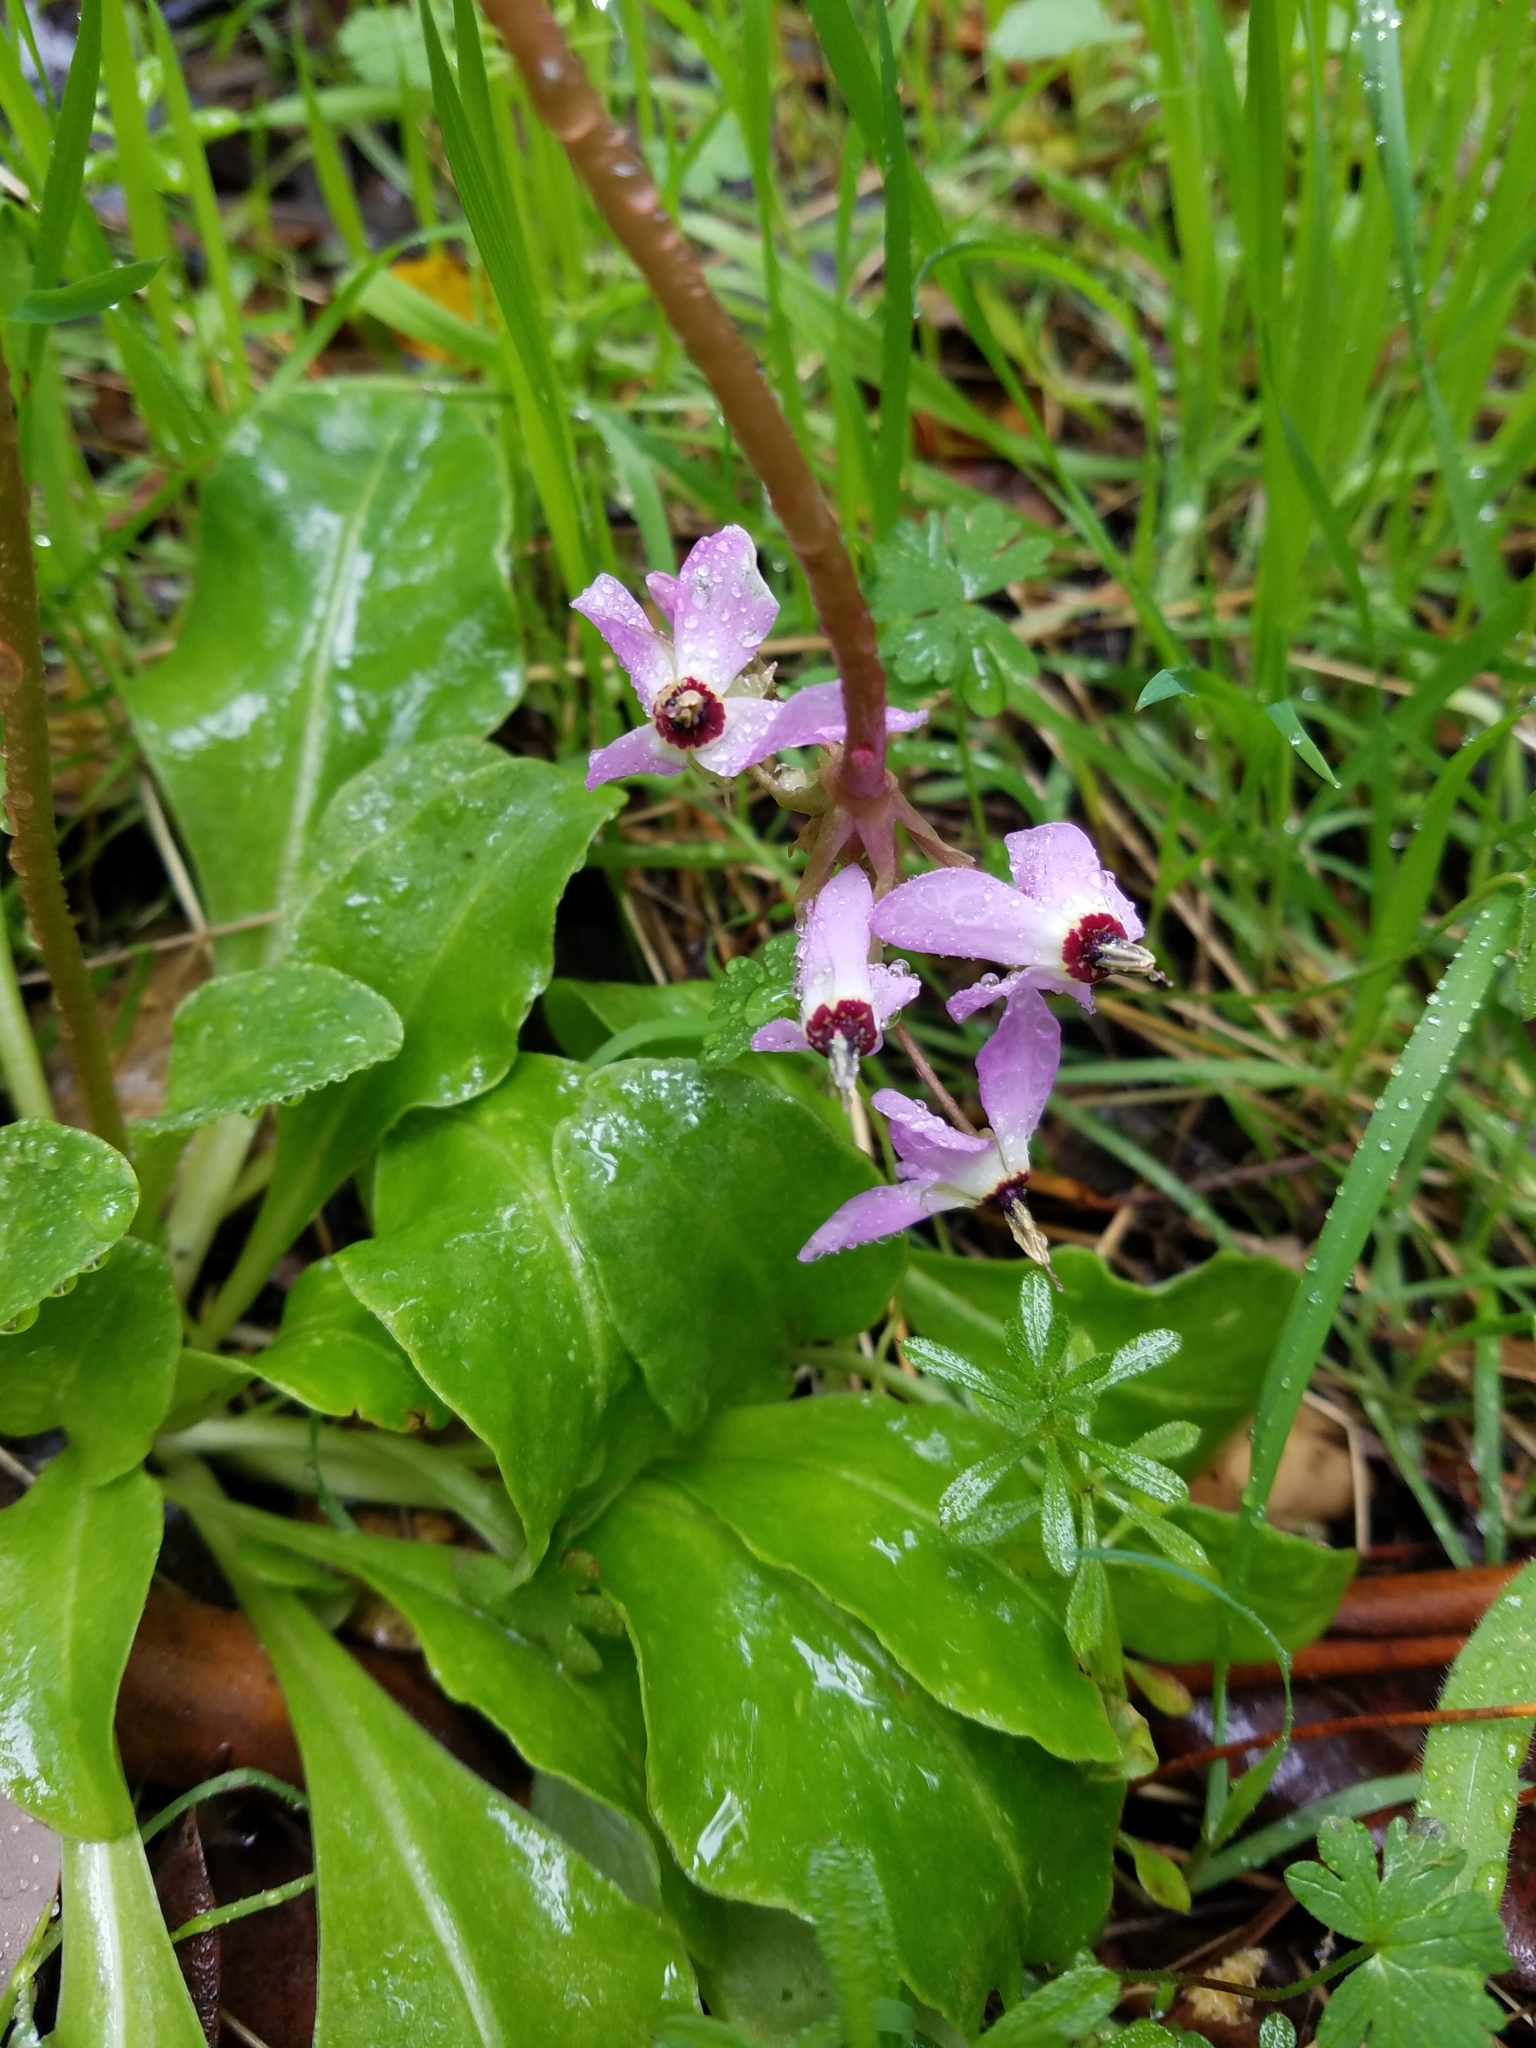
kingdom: Plantae
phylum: Tracheophyta
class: Magnoliopsida
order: Ericales
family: Primulaceae
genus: Dodecatheon
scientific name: Dodecatheon hendersonii
